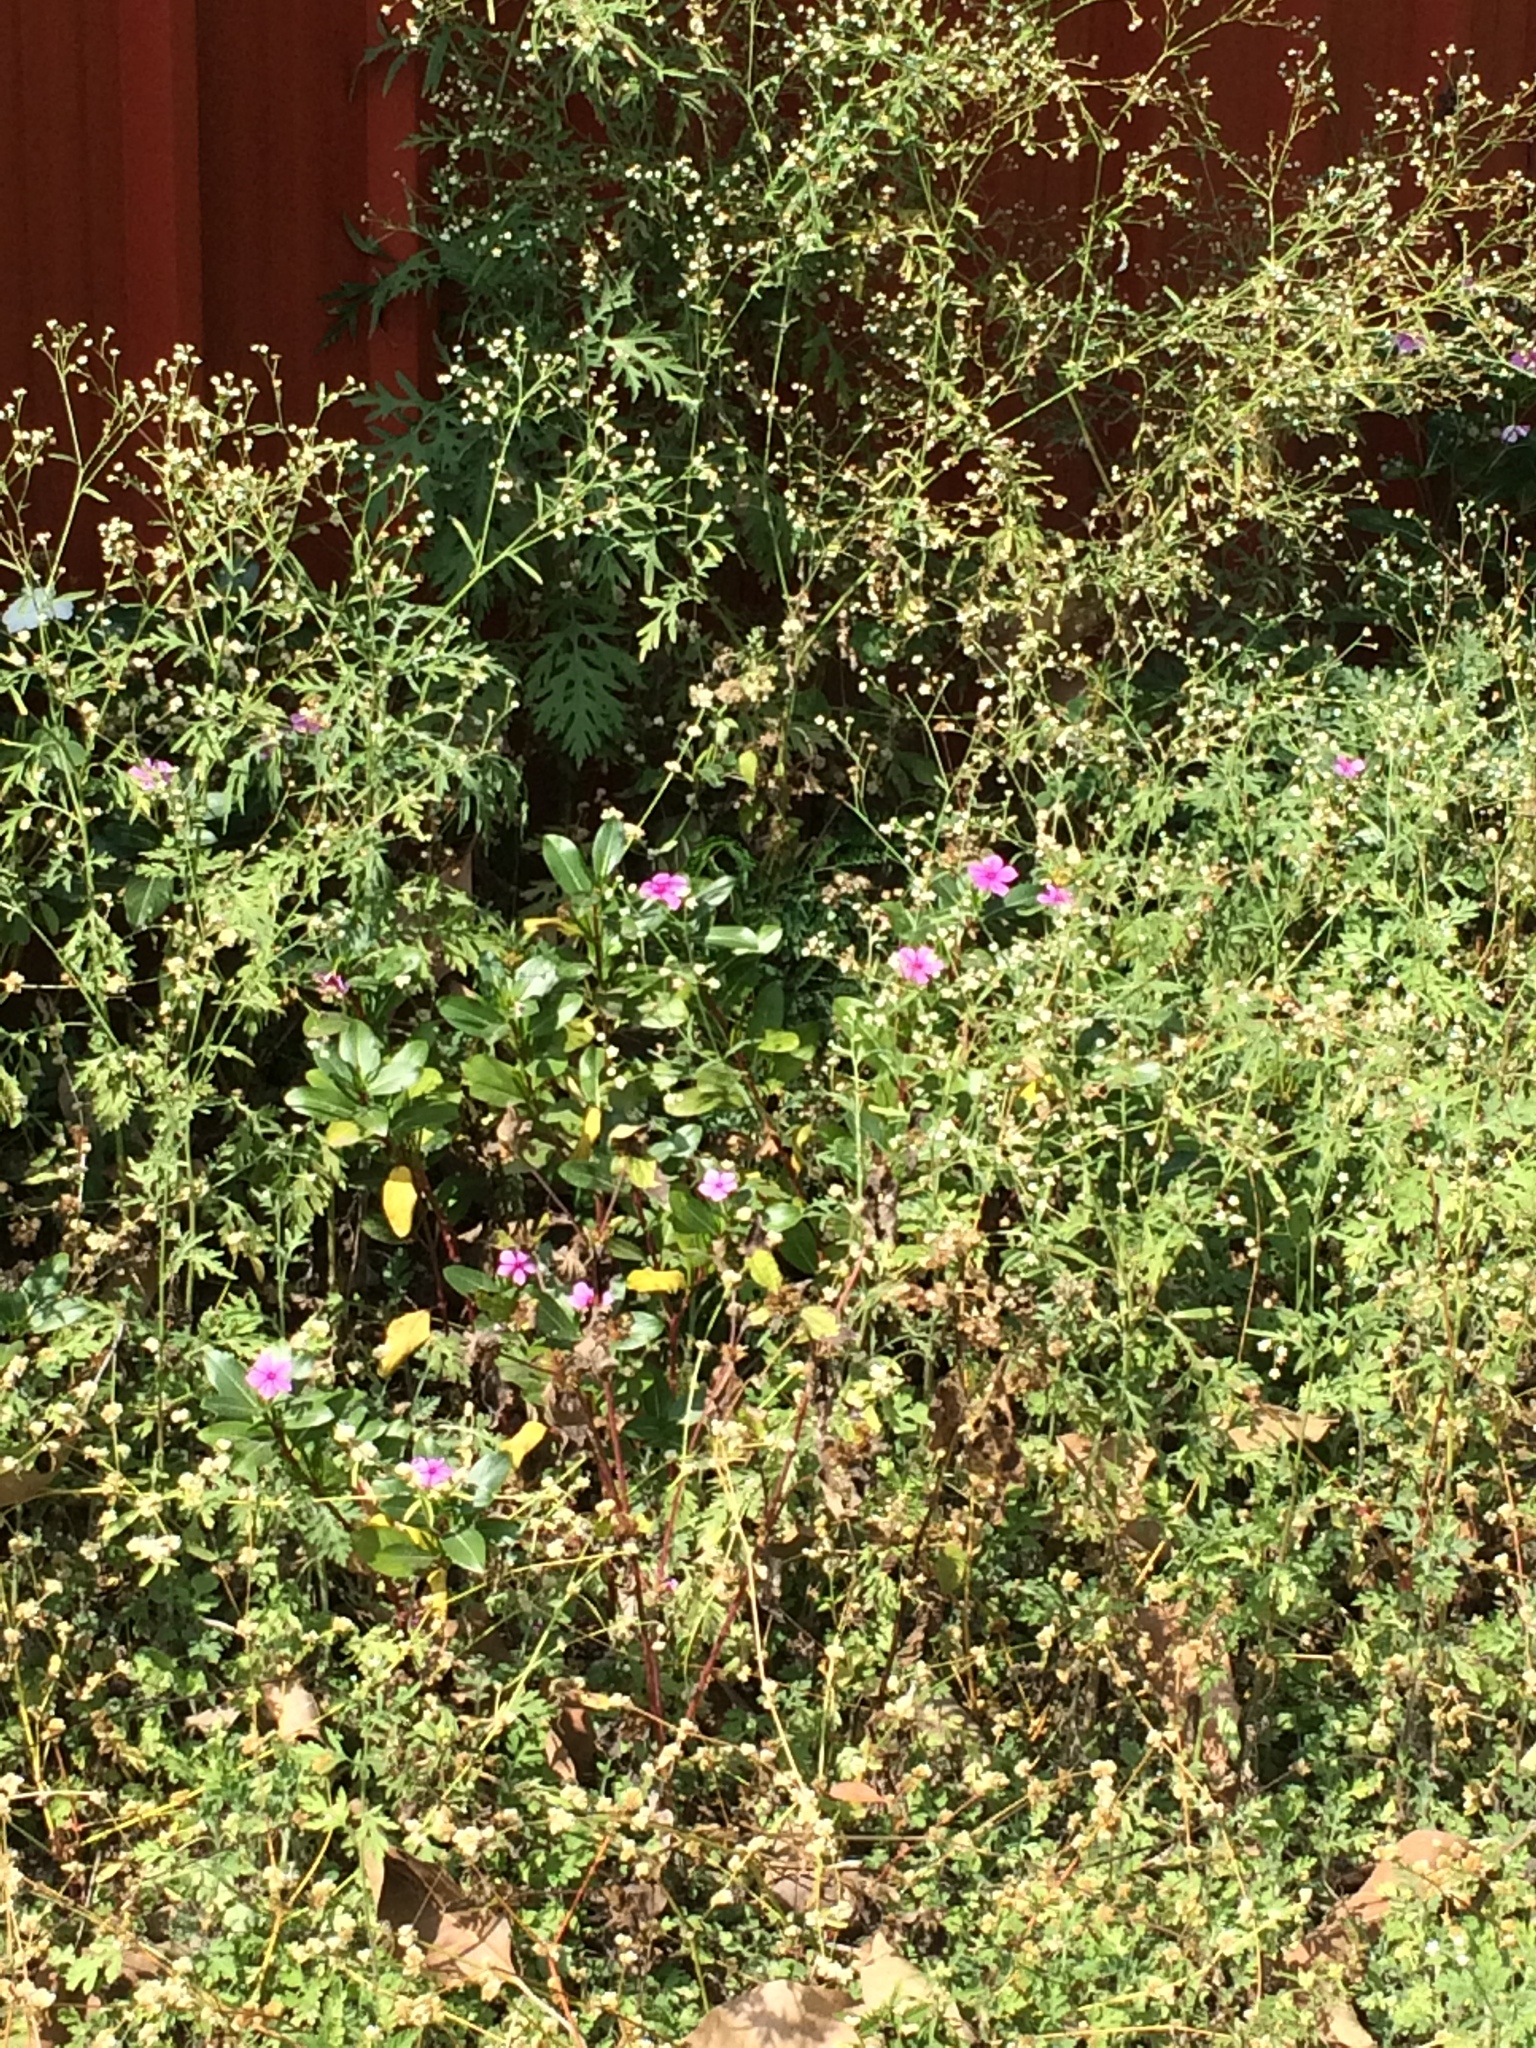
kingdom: Plantae
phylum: Tracheophyta
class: Magnoliopsida
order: Gentianales
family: Apocynaceae
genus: Catharanthus
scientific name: Catharanthus roseus
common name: Madagascar periwinkle
